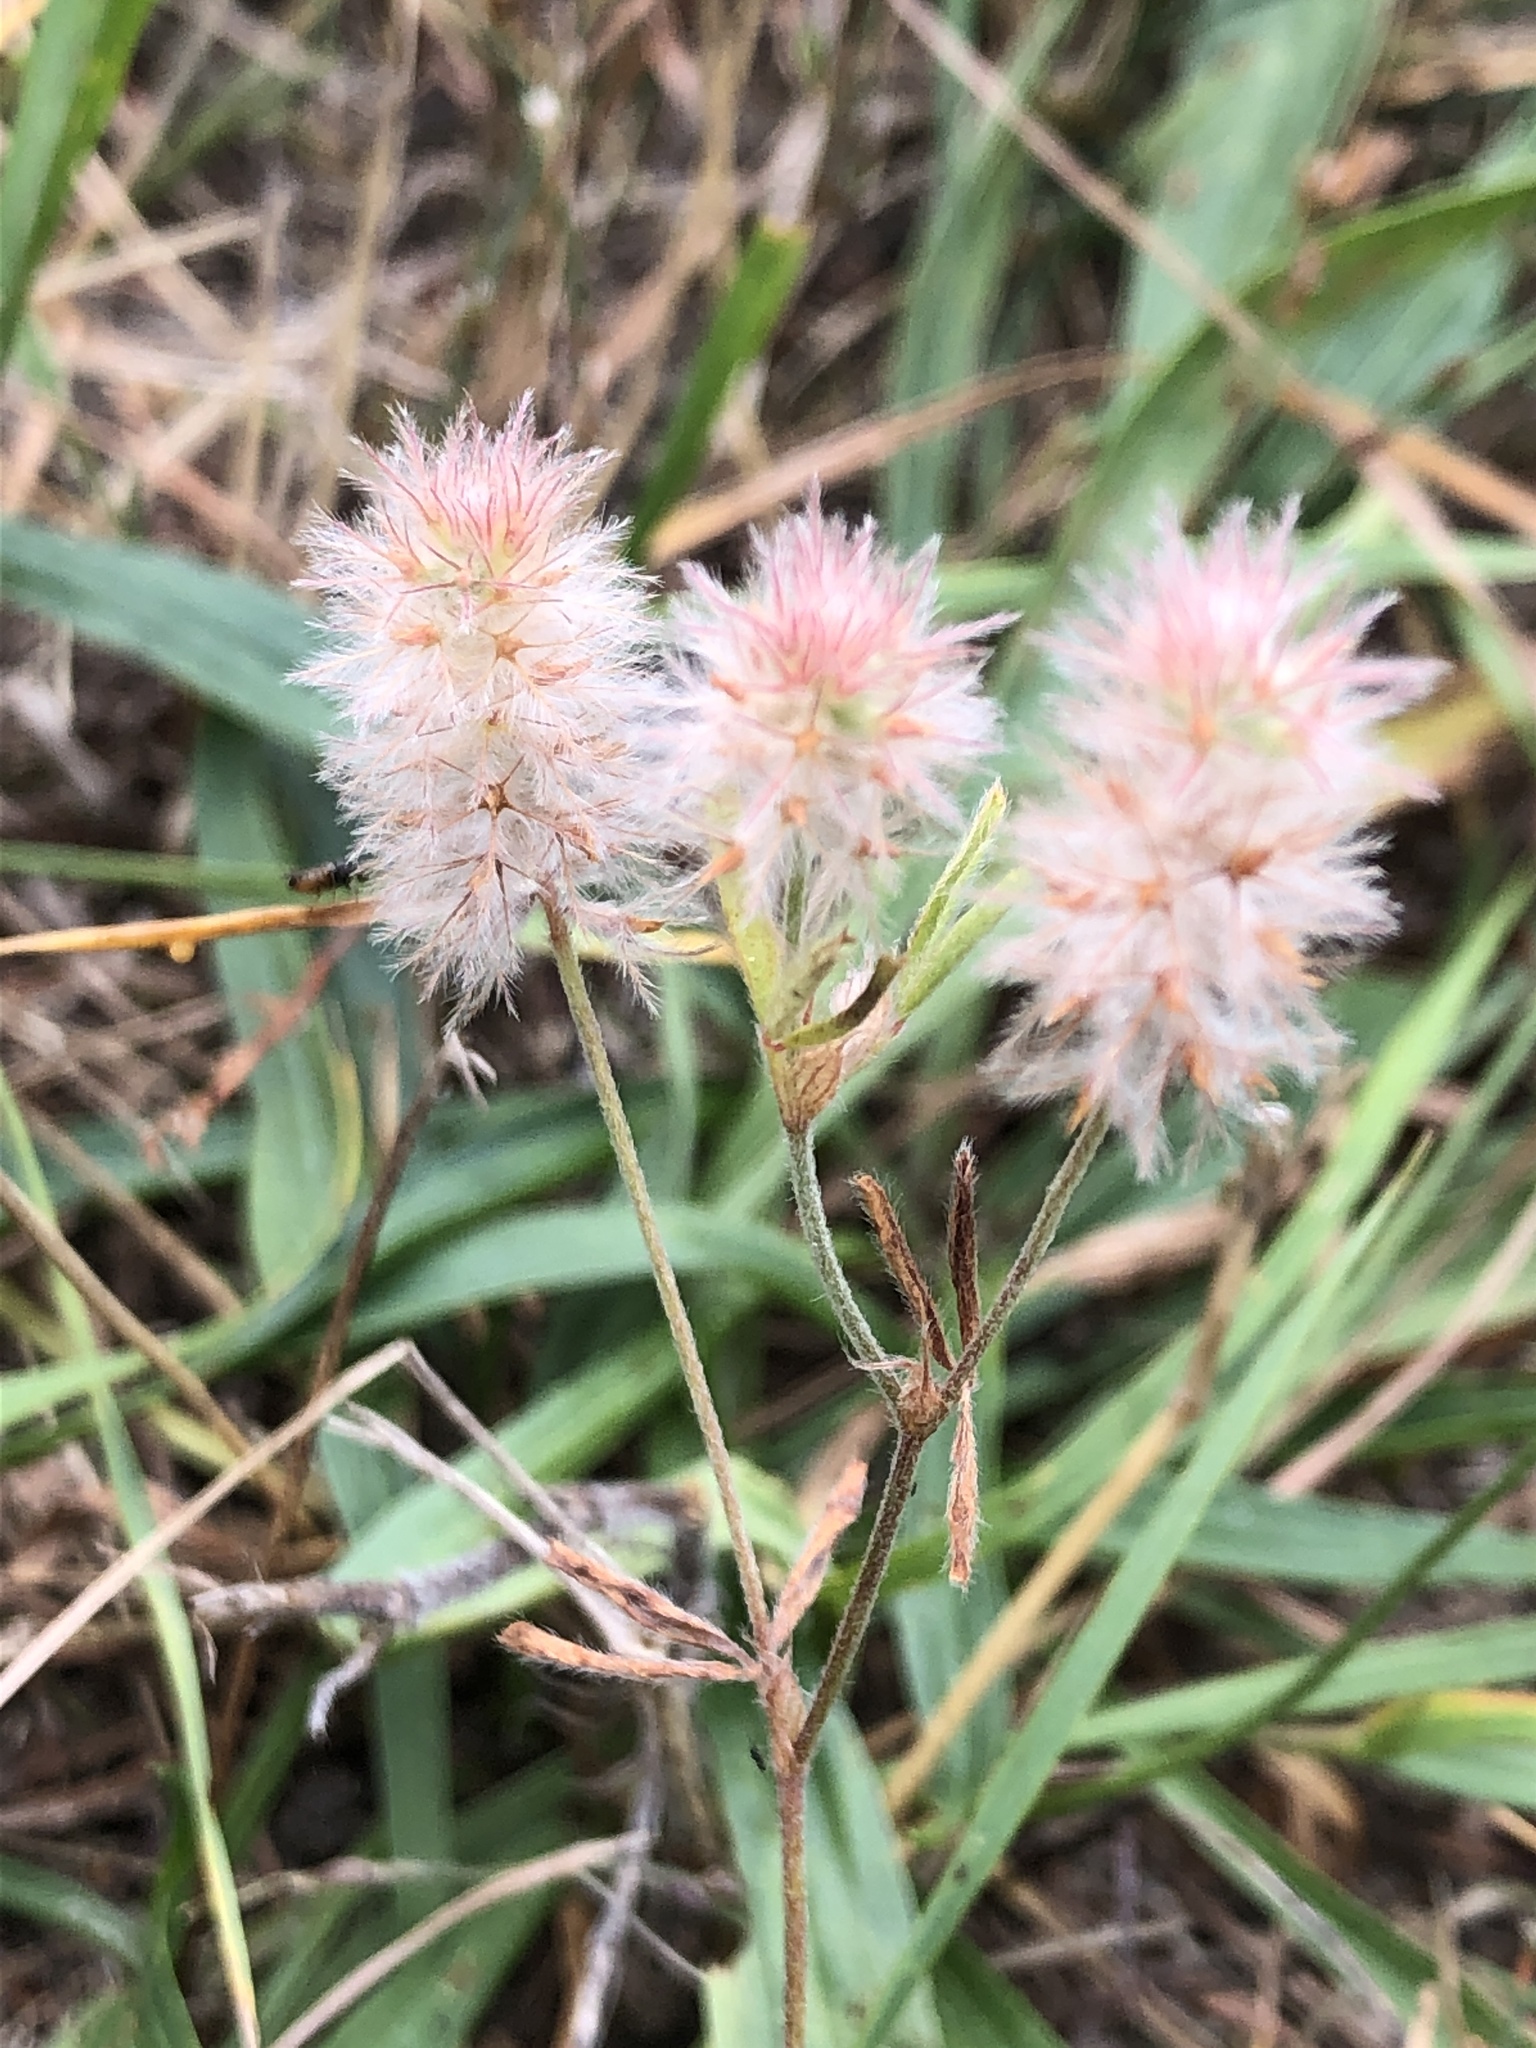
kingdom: Plantae
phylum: Tracheophyta
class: Magnoliopsida
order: Fabales
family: Fabaceae
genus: Trifolium
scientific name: Trifolium arvense
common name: Hare's-foot clover
